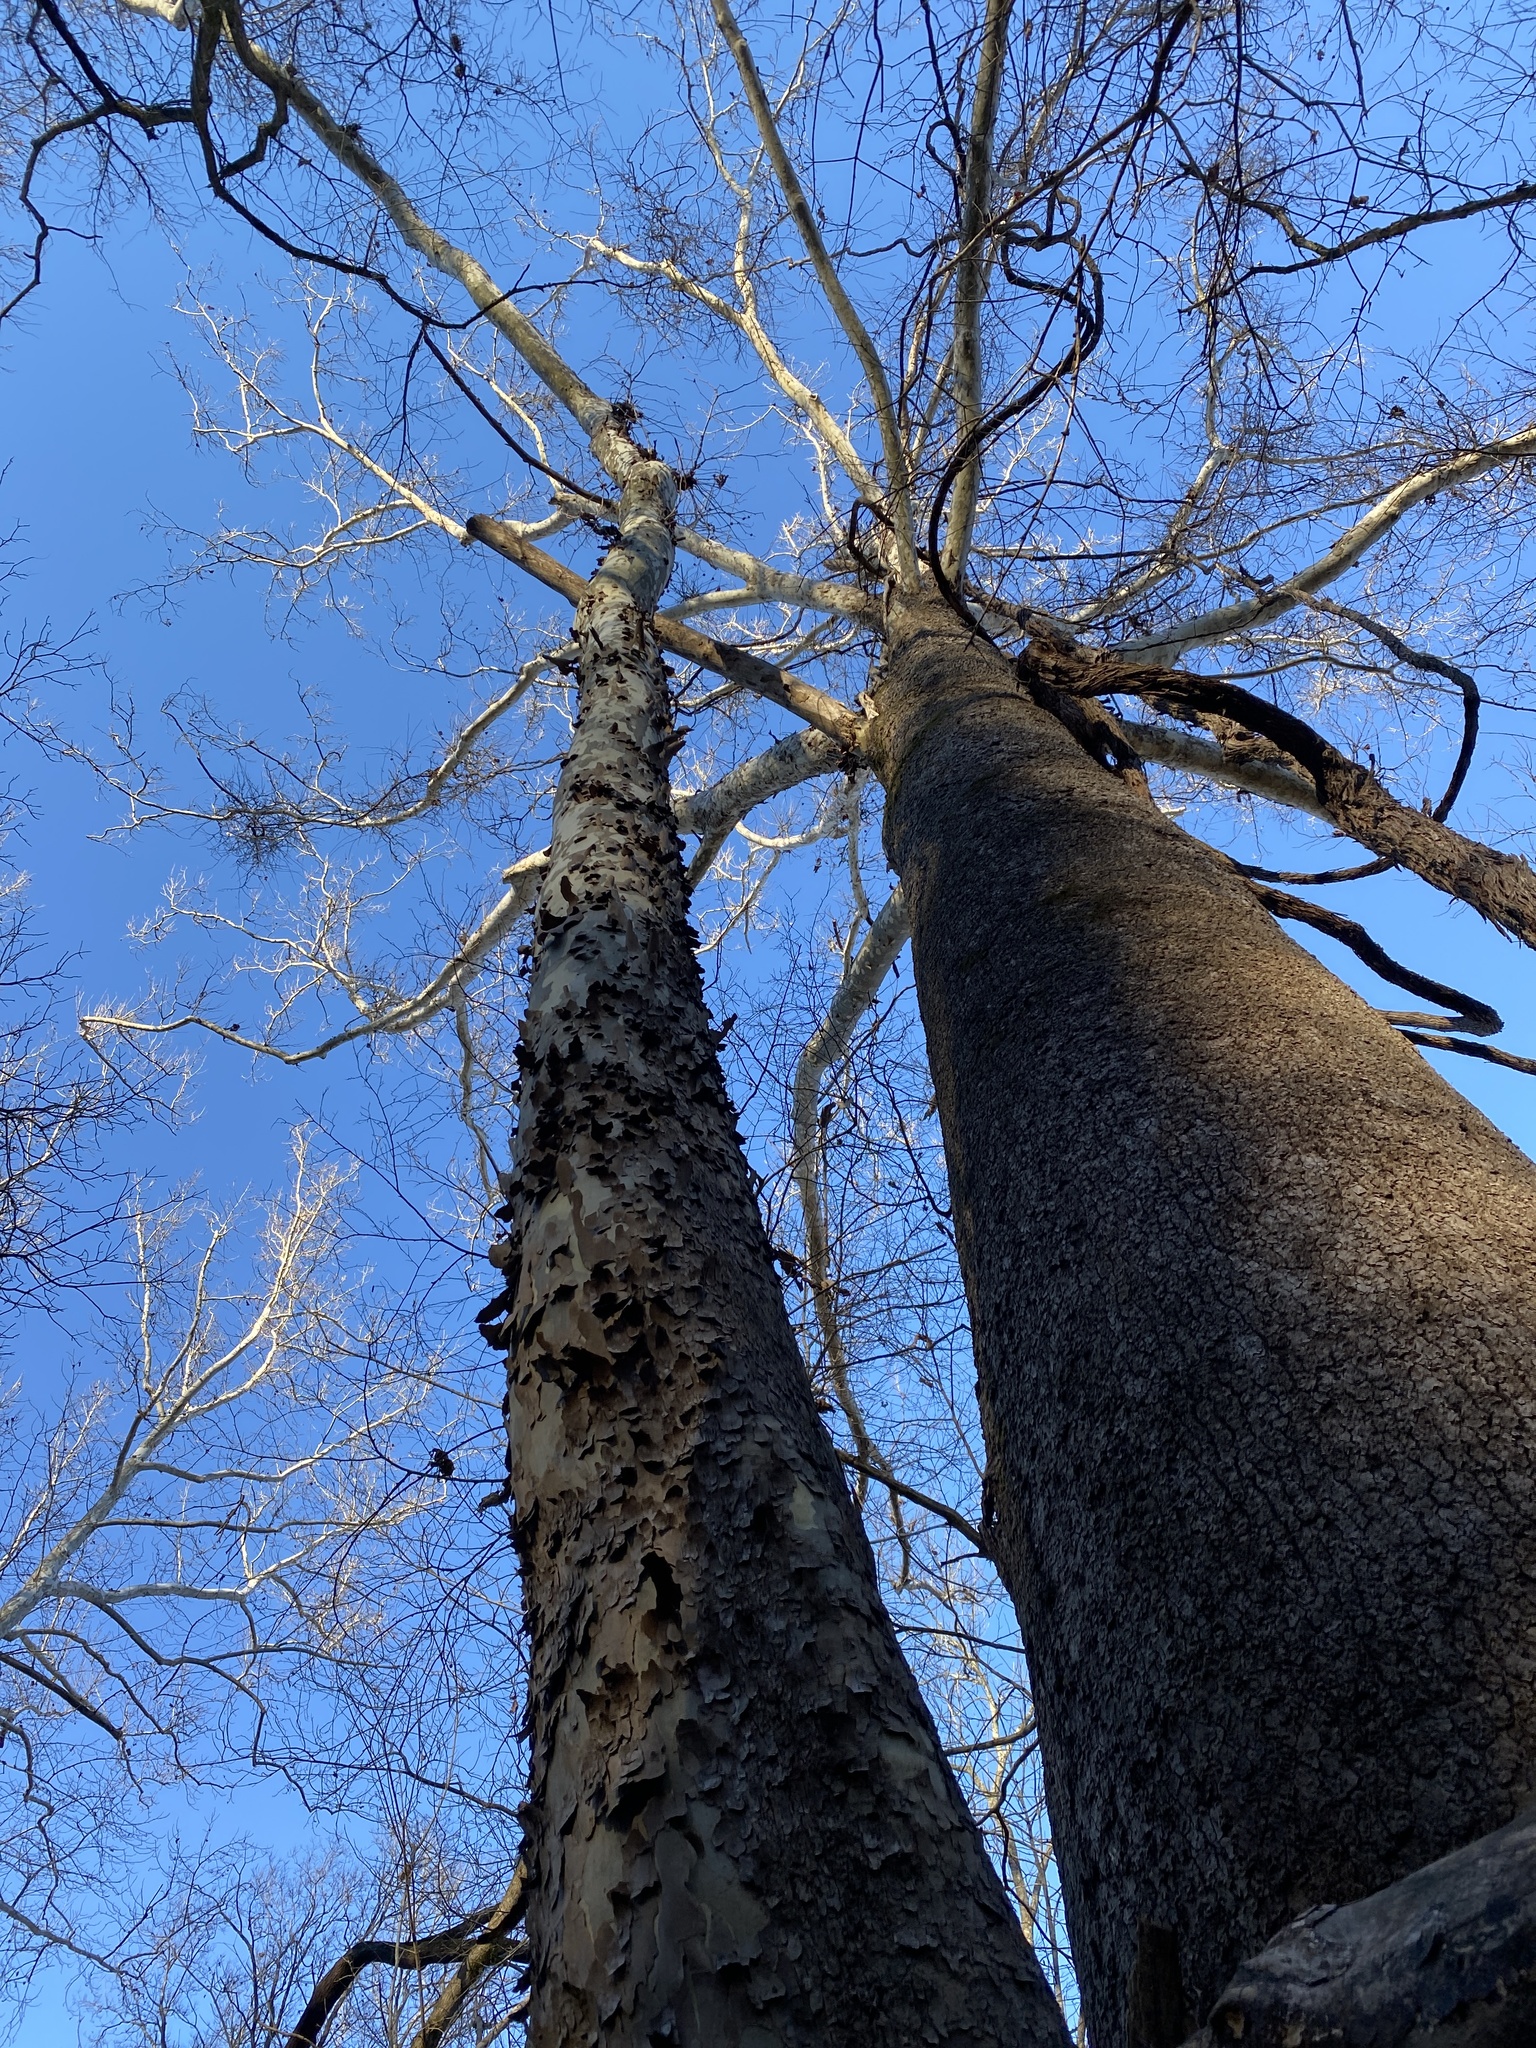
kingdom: Plantae
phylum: Tracheophyta
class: Magnoliopsida
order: Proteales
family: Platanaceae
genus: Platanus
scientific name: Platanus occidentalis
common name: American sycamore
